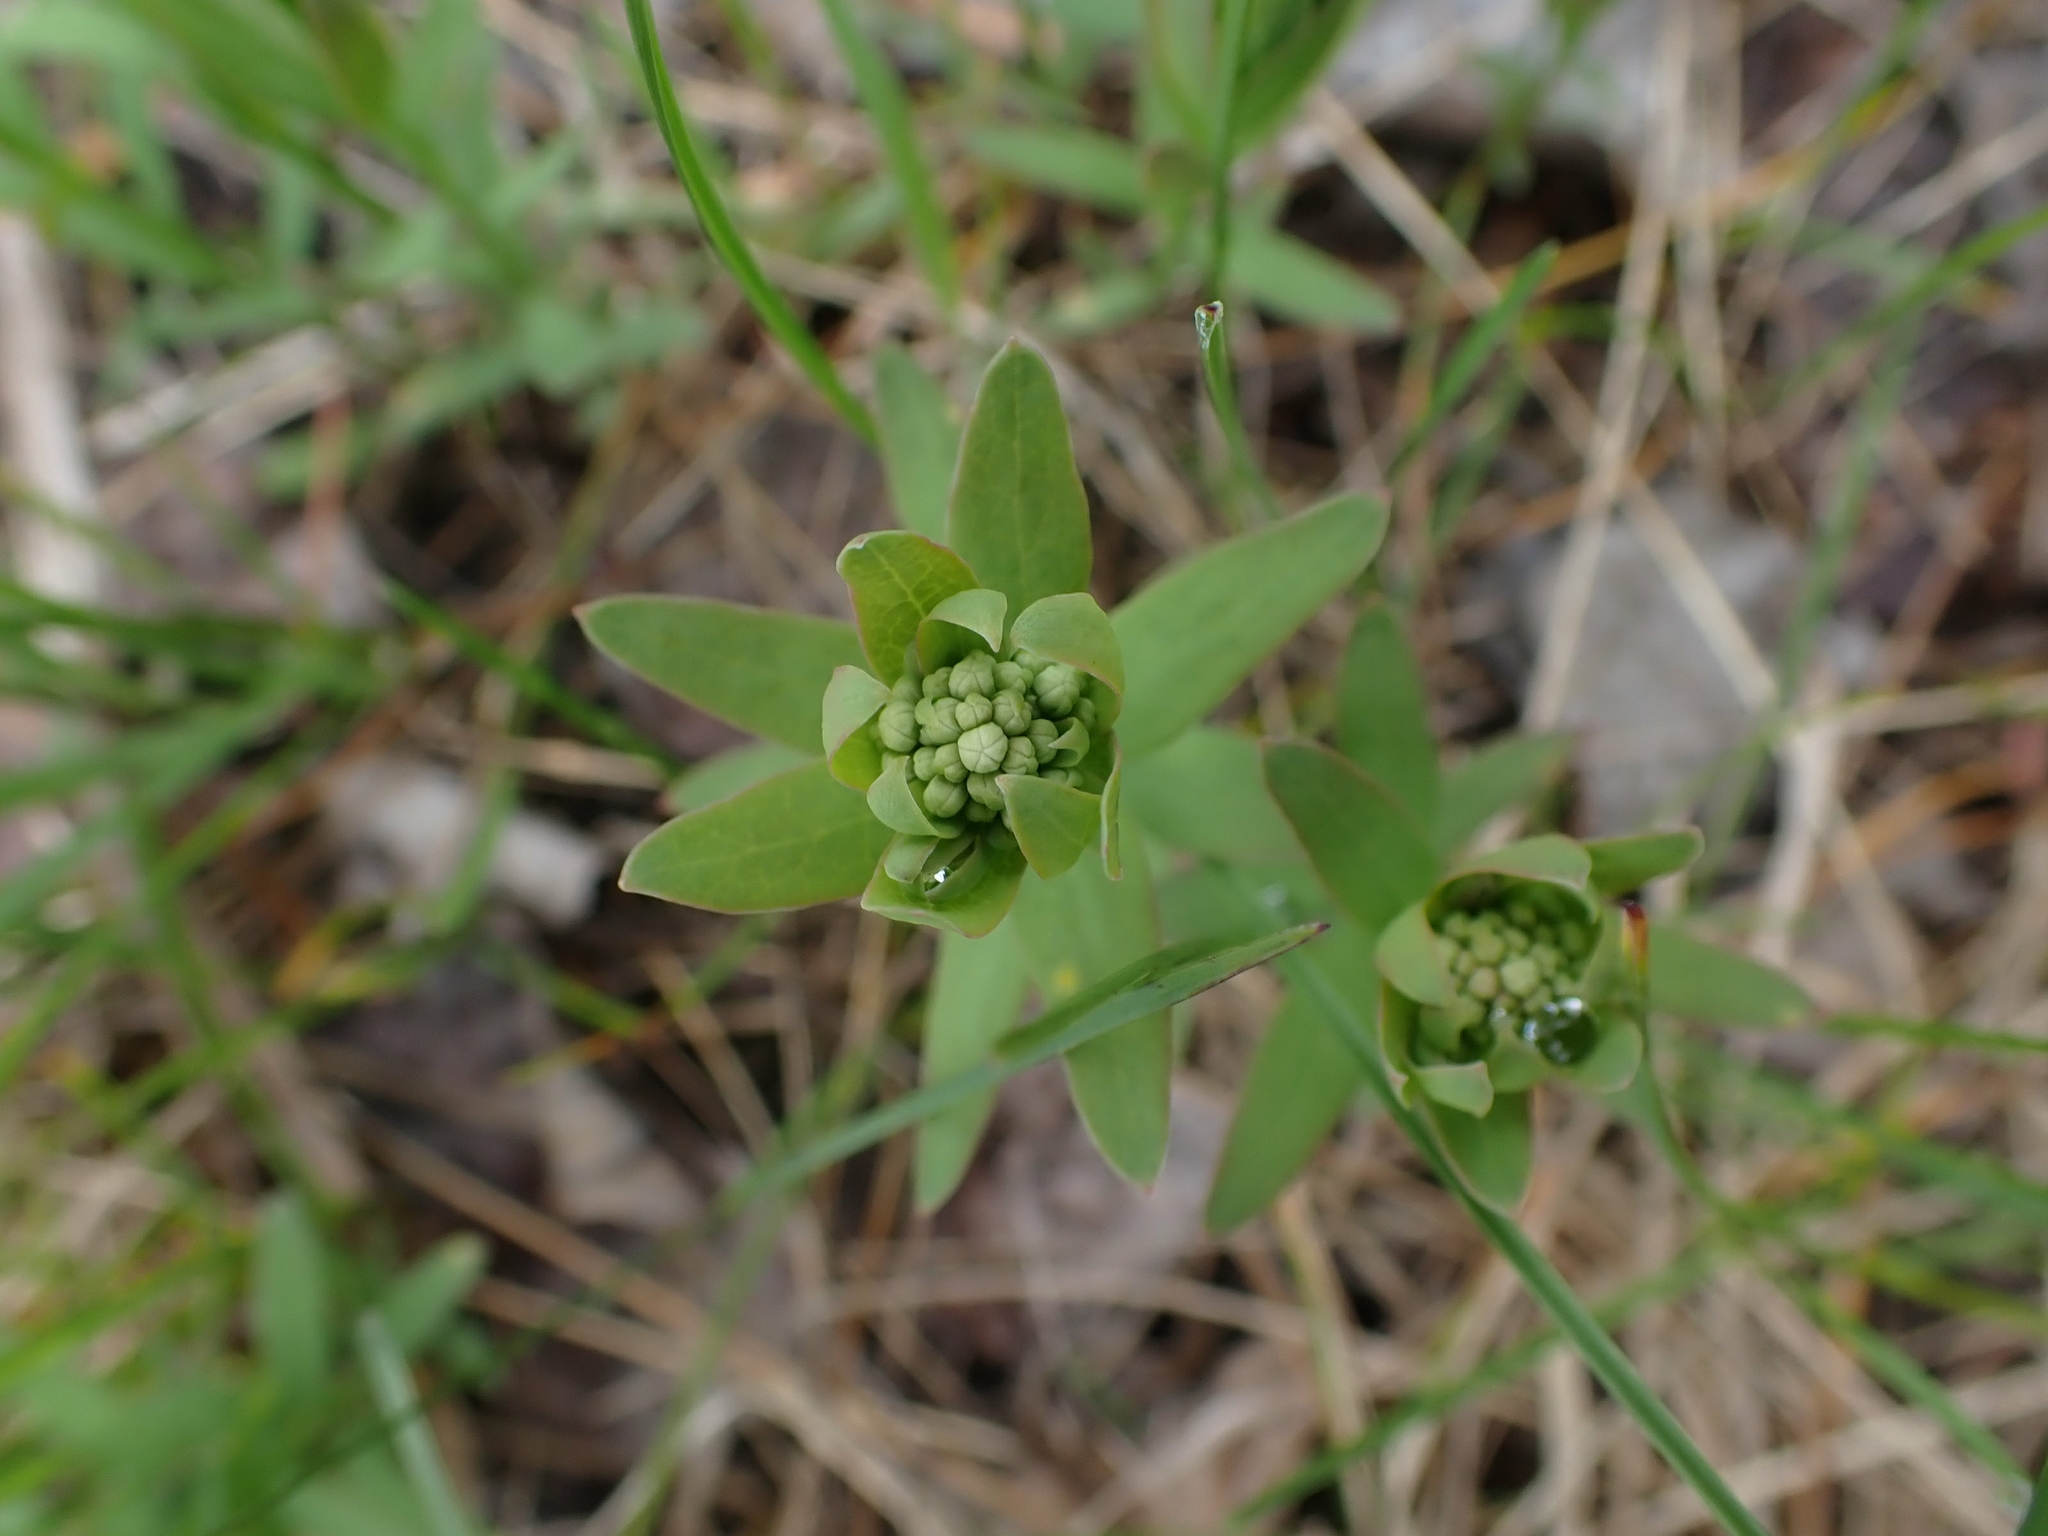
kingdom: Plantae
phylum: Tracheophyta
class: Magnoliopsida
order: Santalales
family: Comandraceae
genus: Comandra
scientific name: Comandra umbellata
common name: Bastard toadflax
